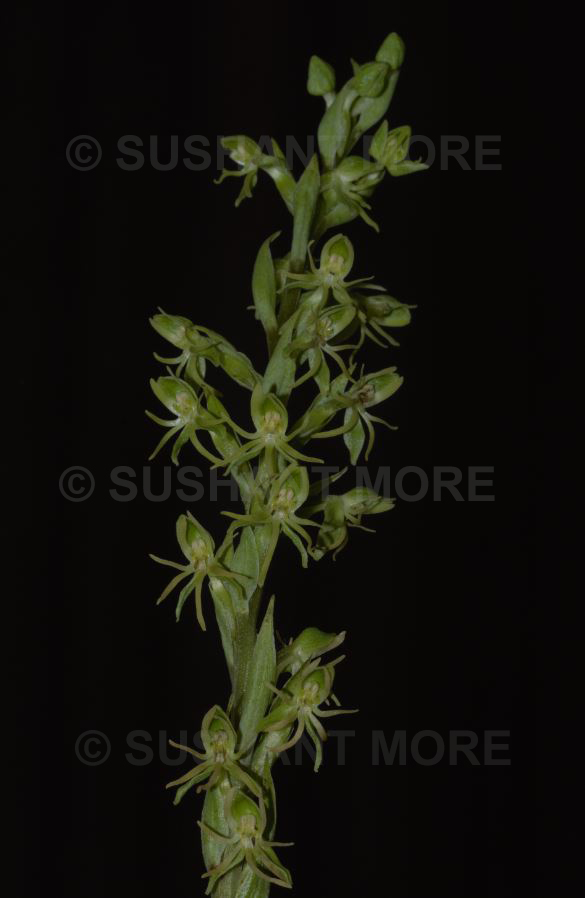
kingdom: Plantae
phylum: Tracheophyta
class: Liliopsida
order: Asparagales
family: Orchidaceae
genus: Habenaria
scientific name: Habenaria spencei
